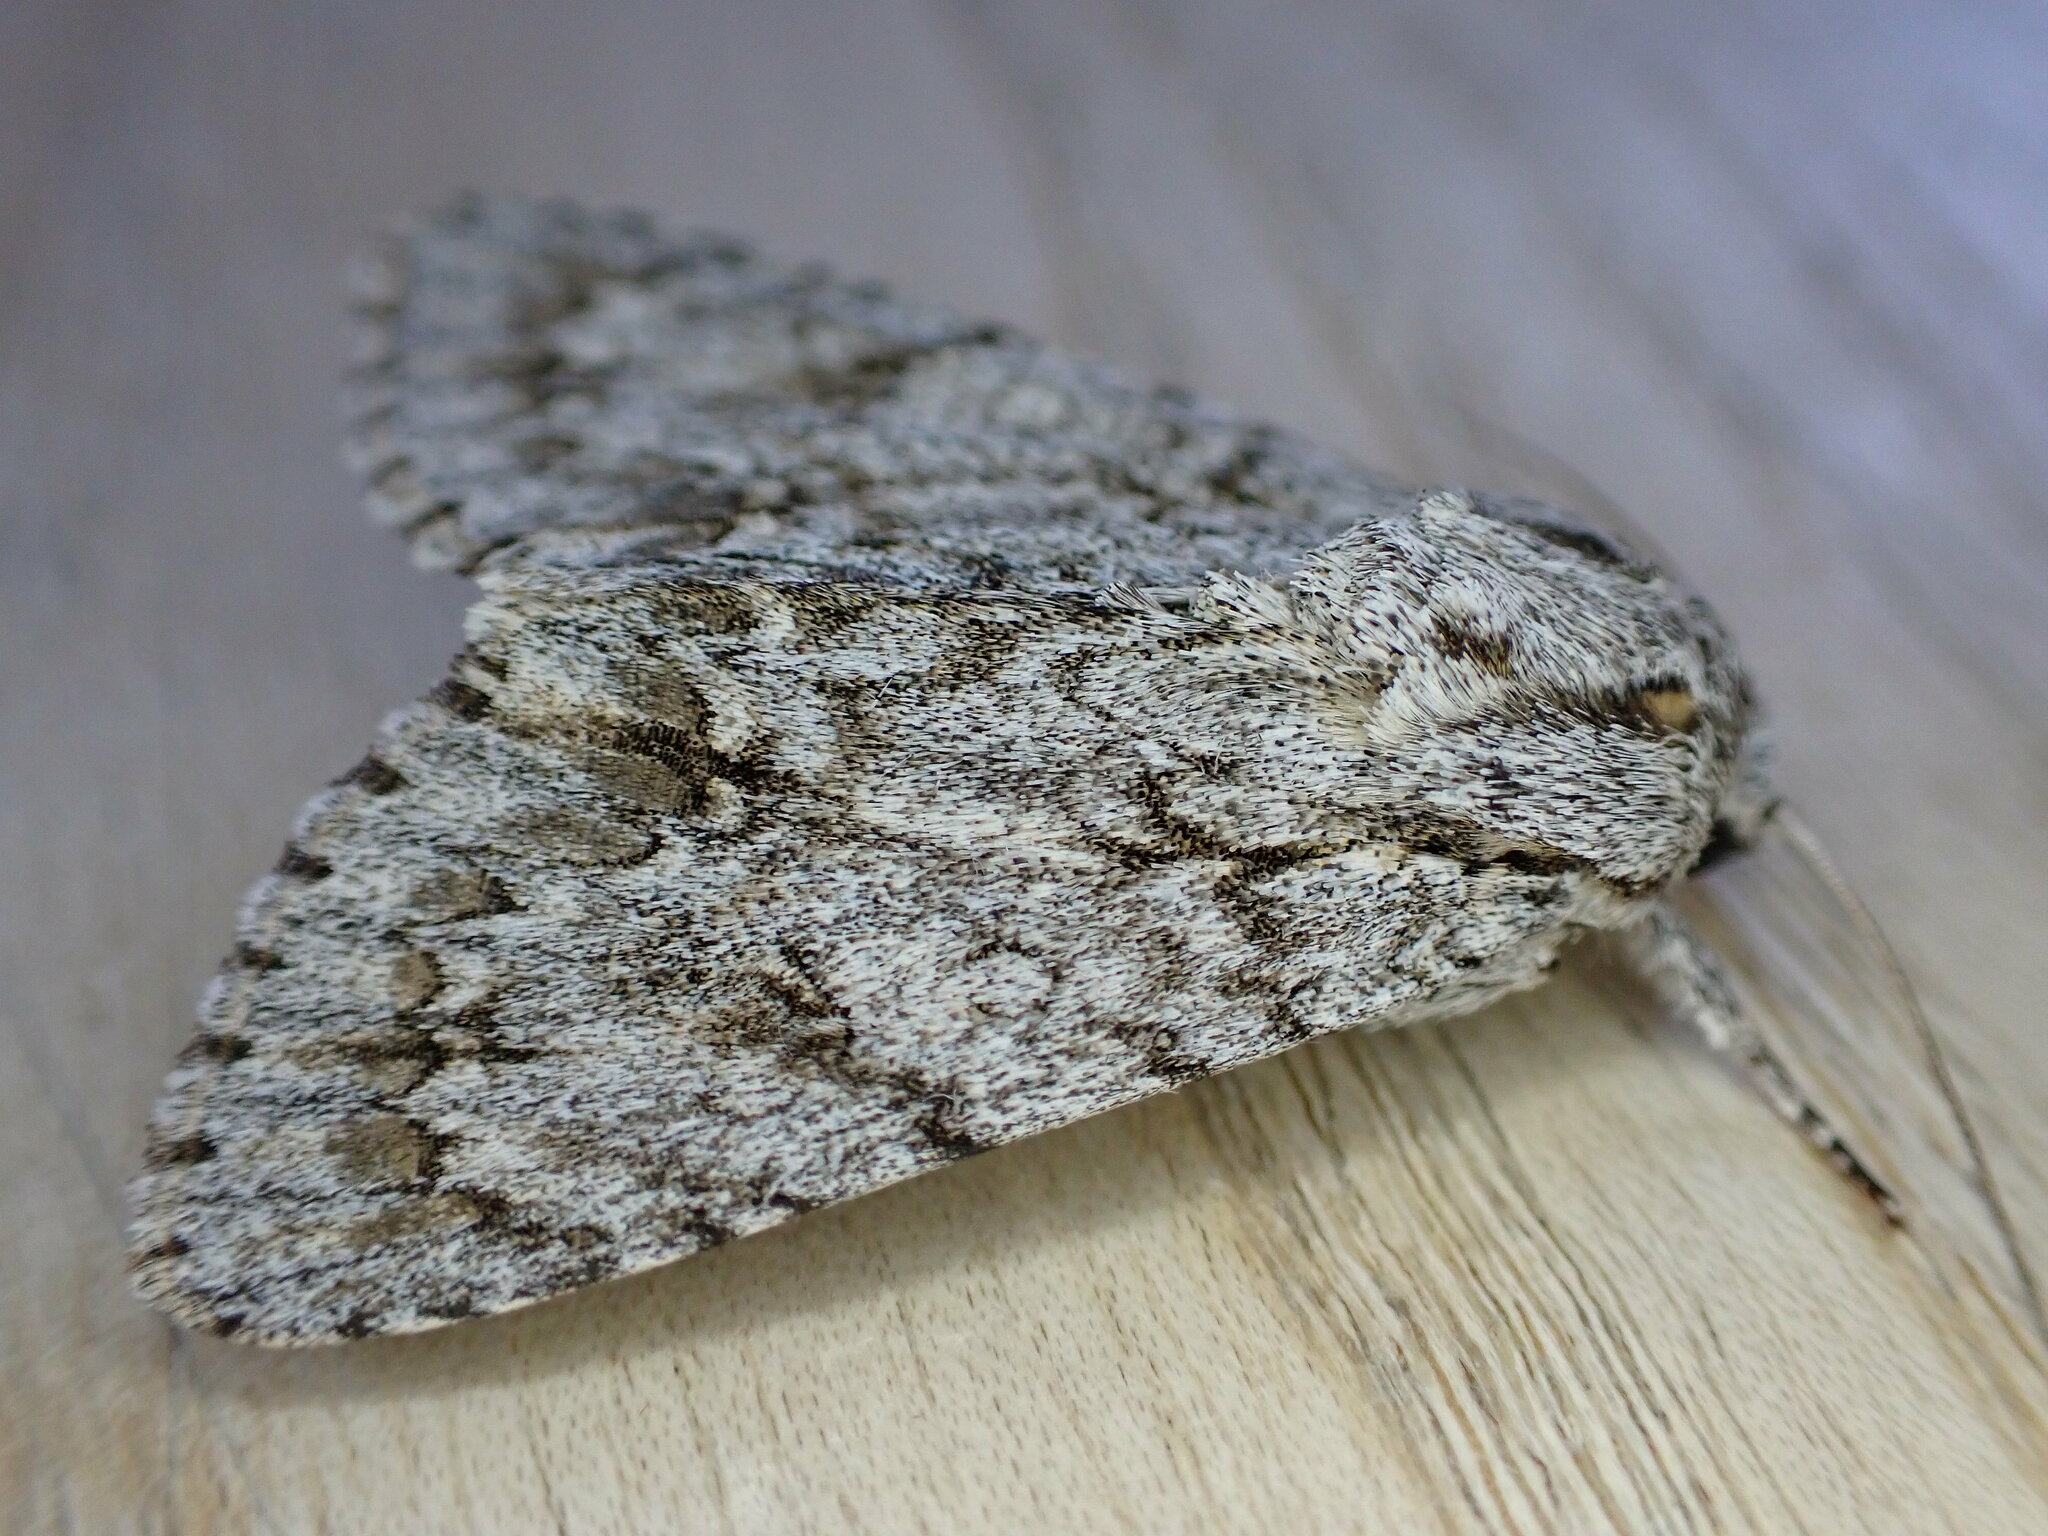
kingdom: Animalia
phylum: Arthropoda
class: Insecta
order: Lepidoptera
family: Noctuidae
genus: Acronicta
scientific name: Acronicta aceris
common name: Sycamore
